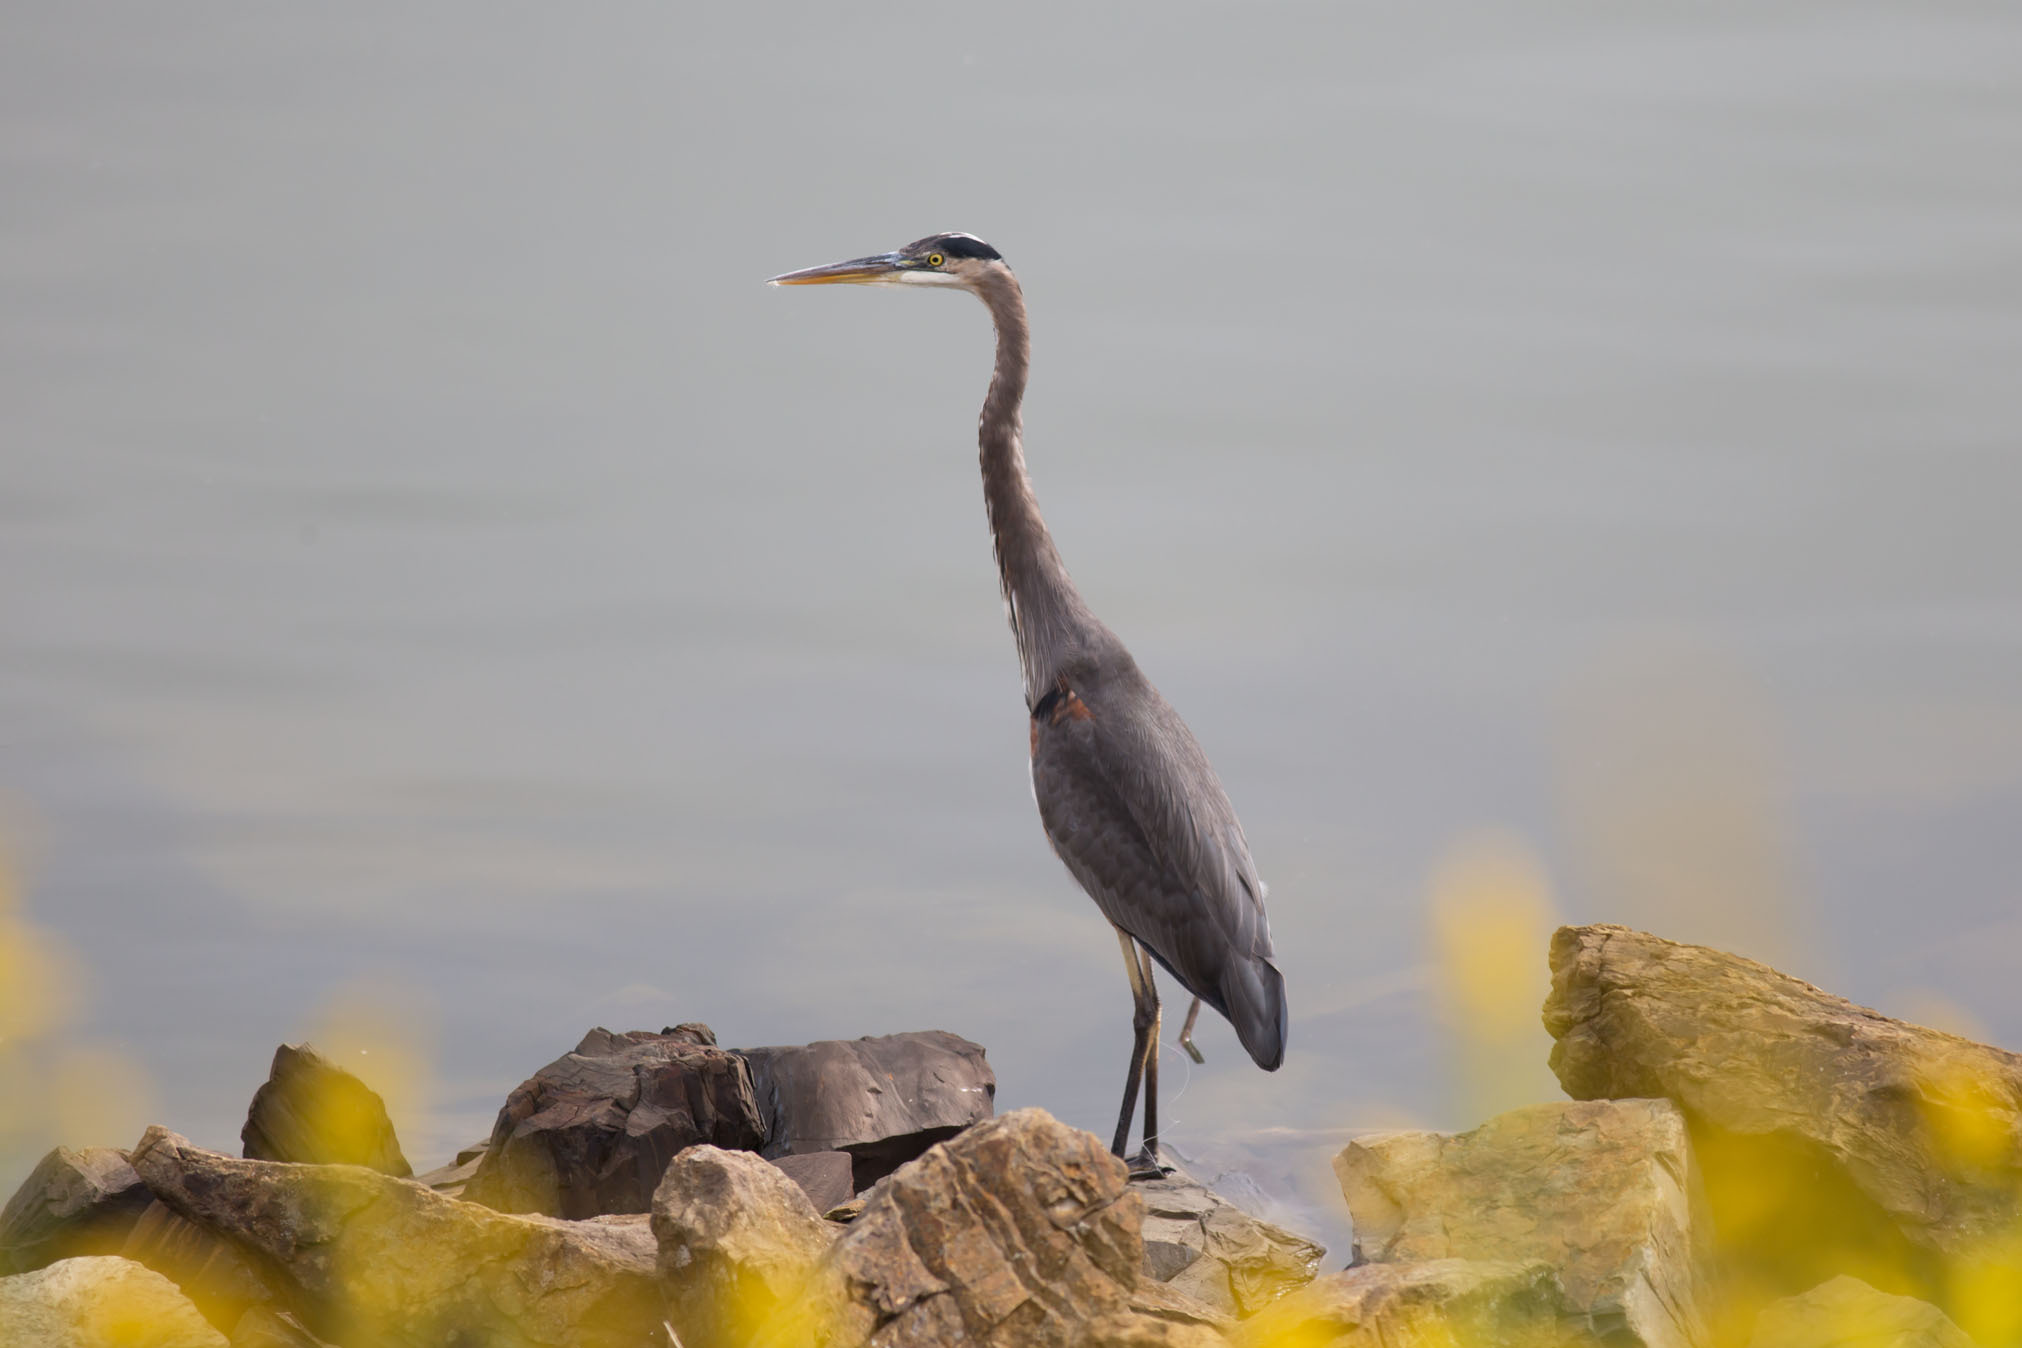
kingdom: Animalia
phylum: Chordata
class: Aves
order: Pelecaniformes
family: Ardeidae
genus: Ardea
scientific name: Ardea herodias
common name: Great blue heron
